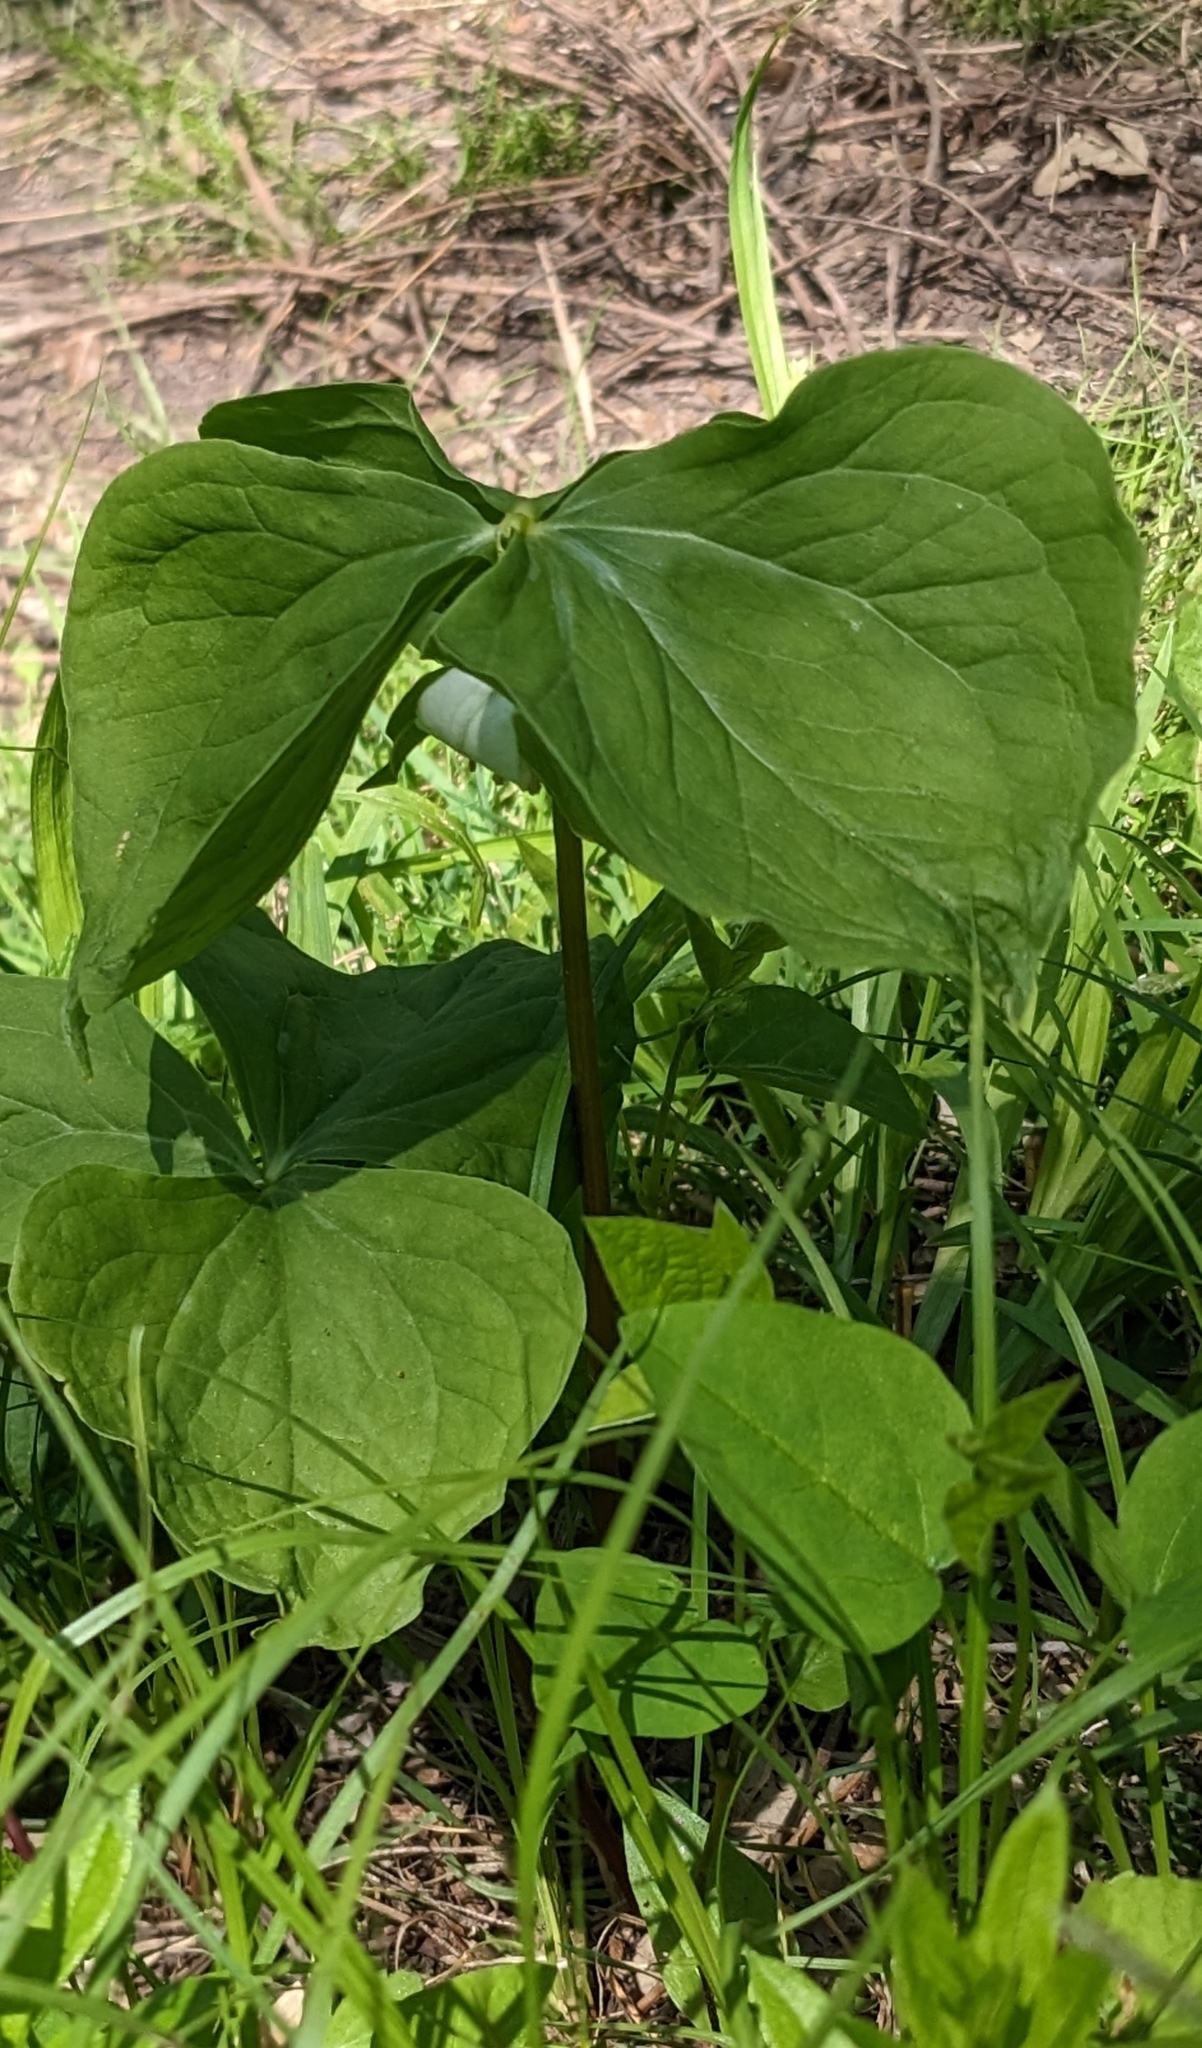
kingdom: Plantae
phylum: Tracheophyta
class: Liliopsida
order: Liliales
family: Melanthiaceae
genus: Trillium
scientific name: Trillium cernuum
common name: Nodding trillium
